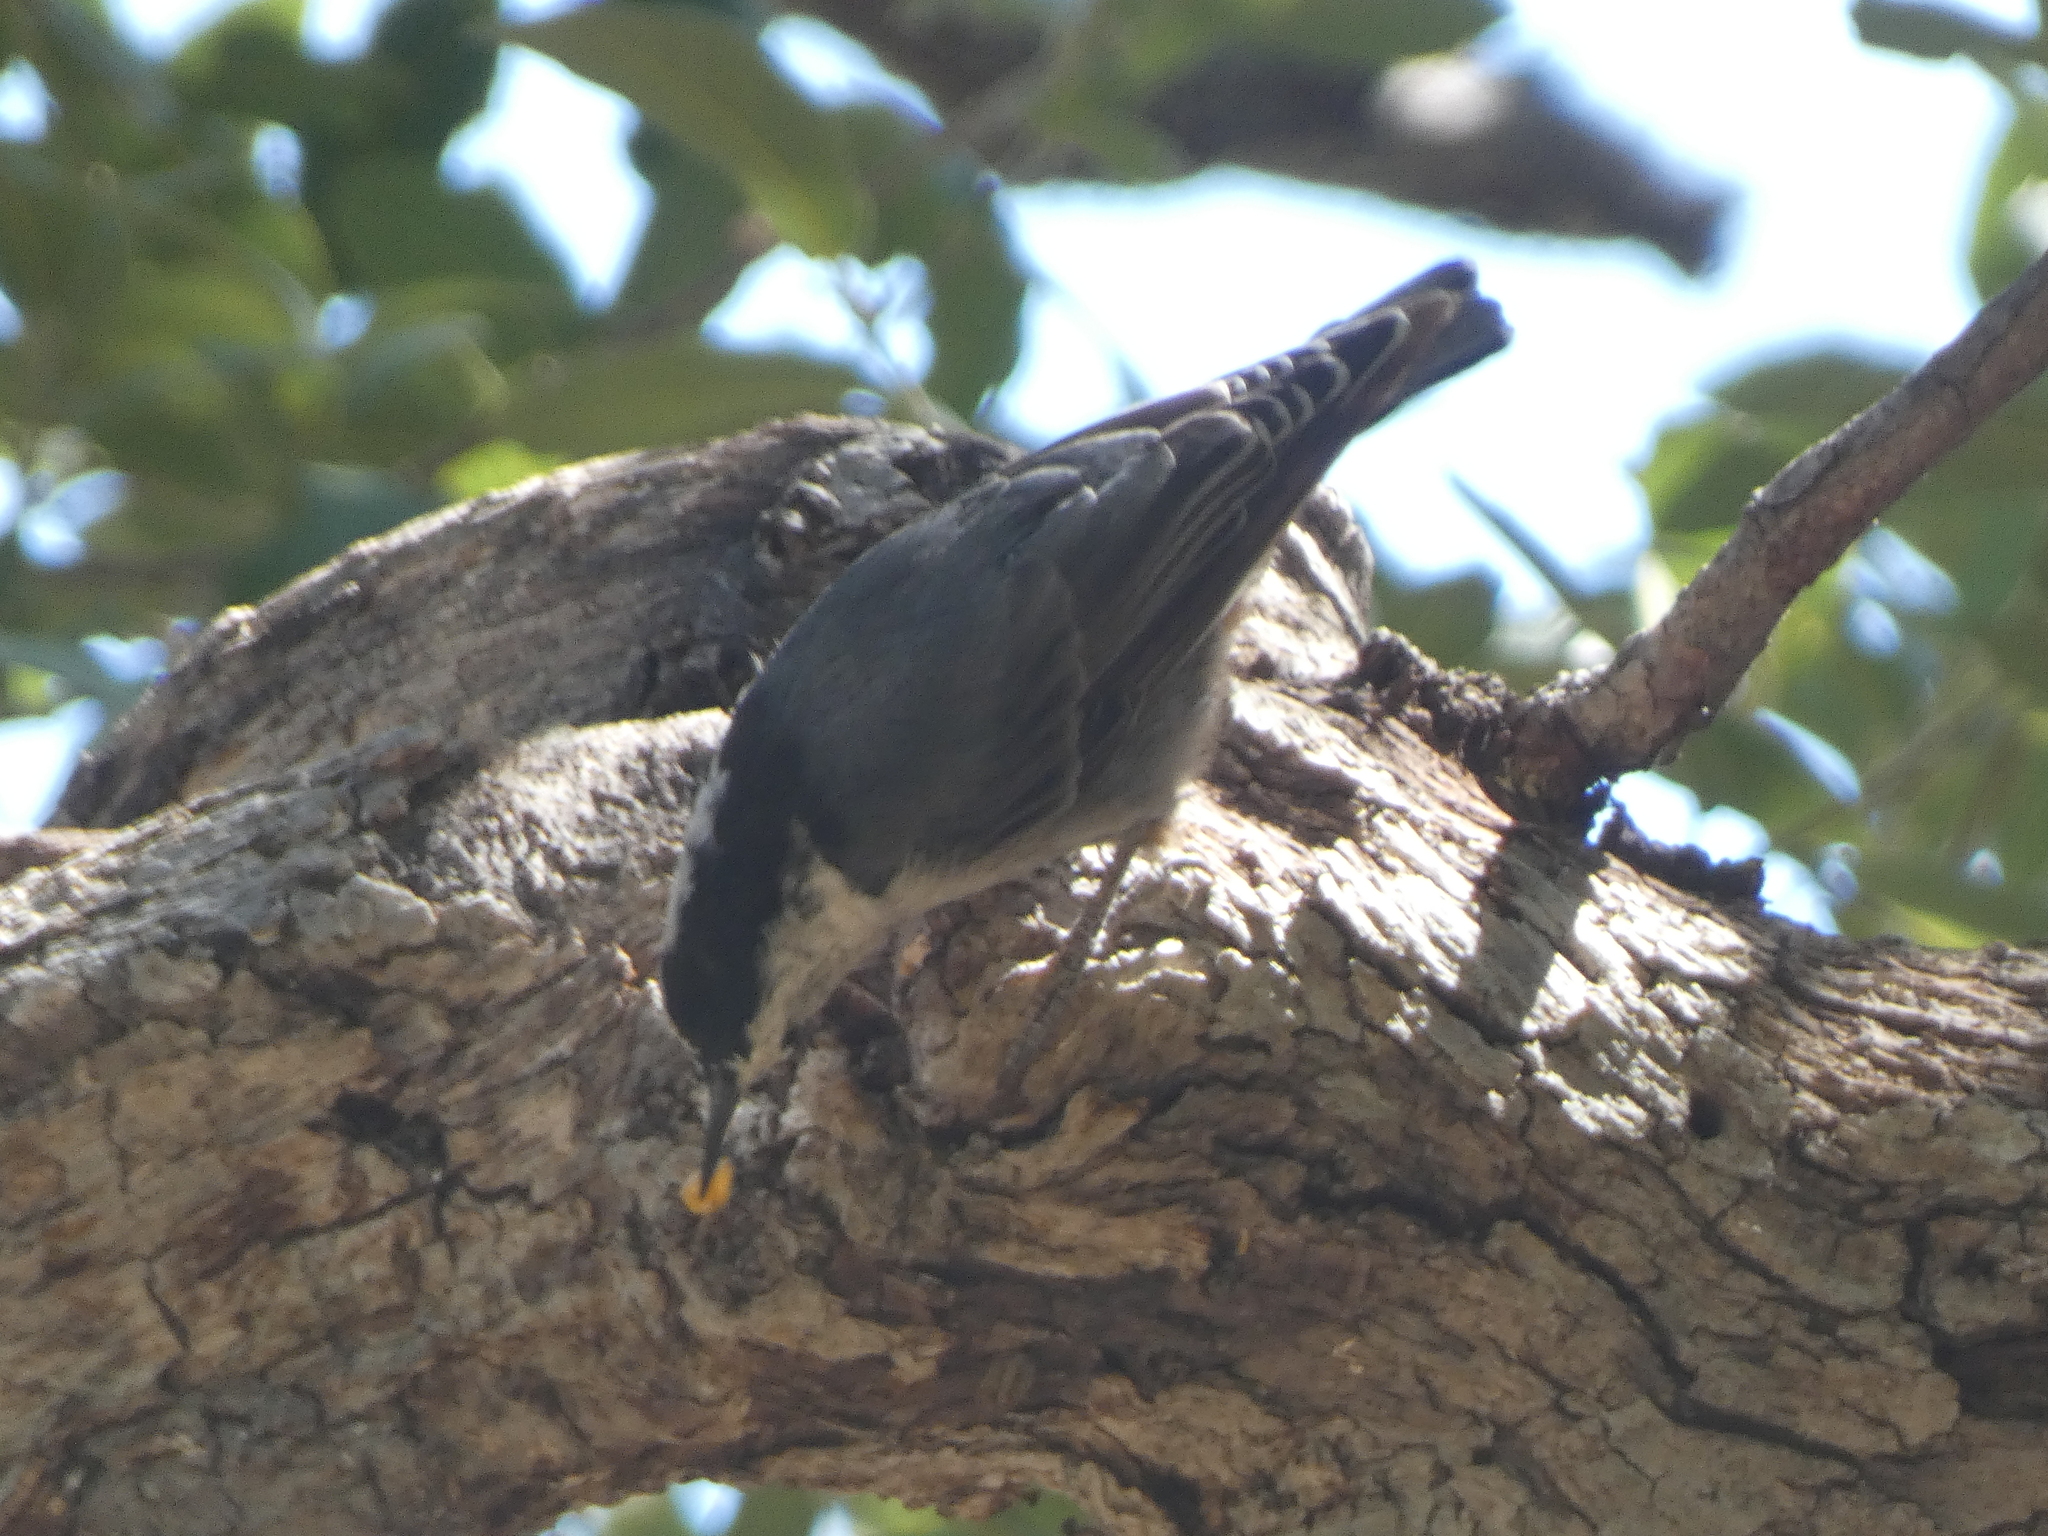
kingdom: Animalia
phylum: Chordata
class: Aves
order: Passeriformes
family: Sittidae
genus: Sitta
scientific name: Sitta carolinensis
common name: White-breasted nuthatch
